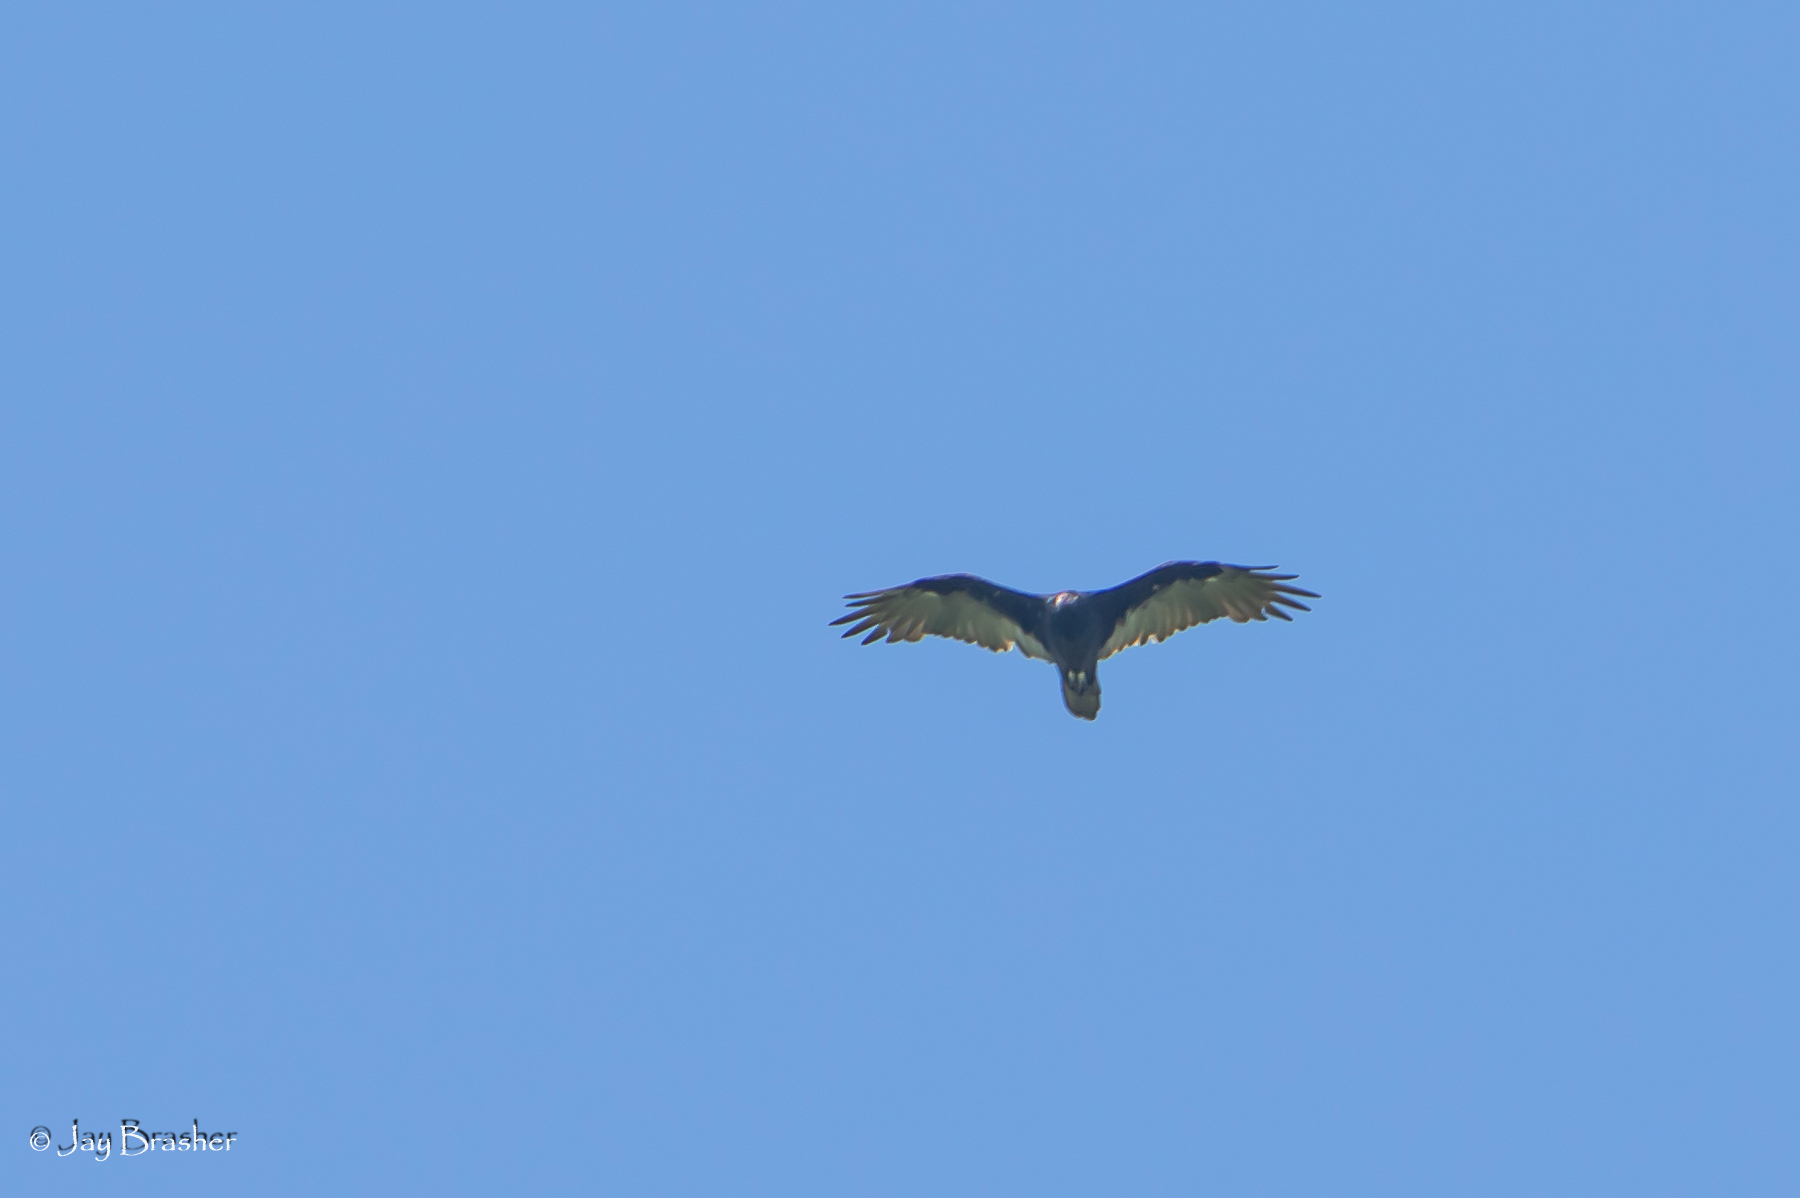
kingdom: Animalia
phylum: Chordata
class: Aves
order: Accipitriformes
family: Cathartidae
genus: Cathartes
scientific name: Cathartes aura
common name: Turkey vulture
